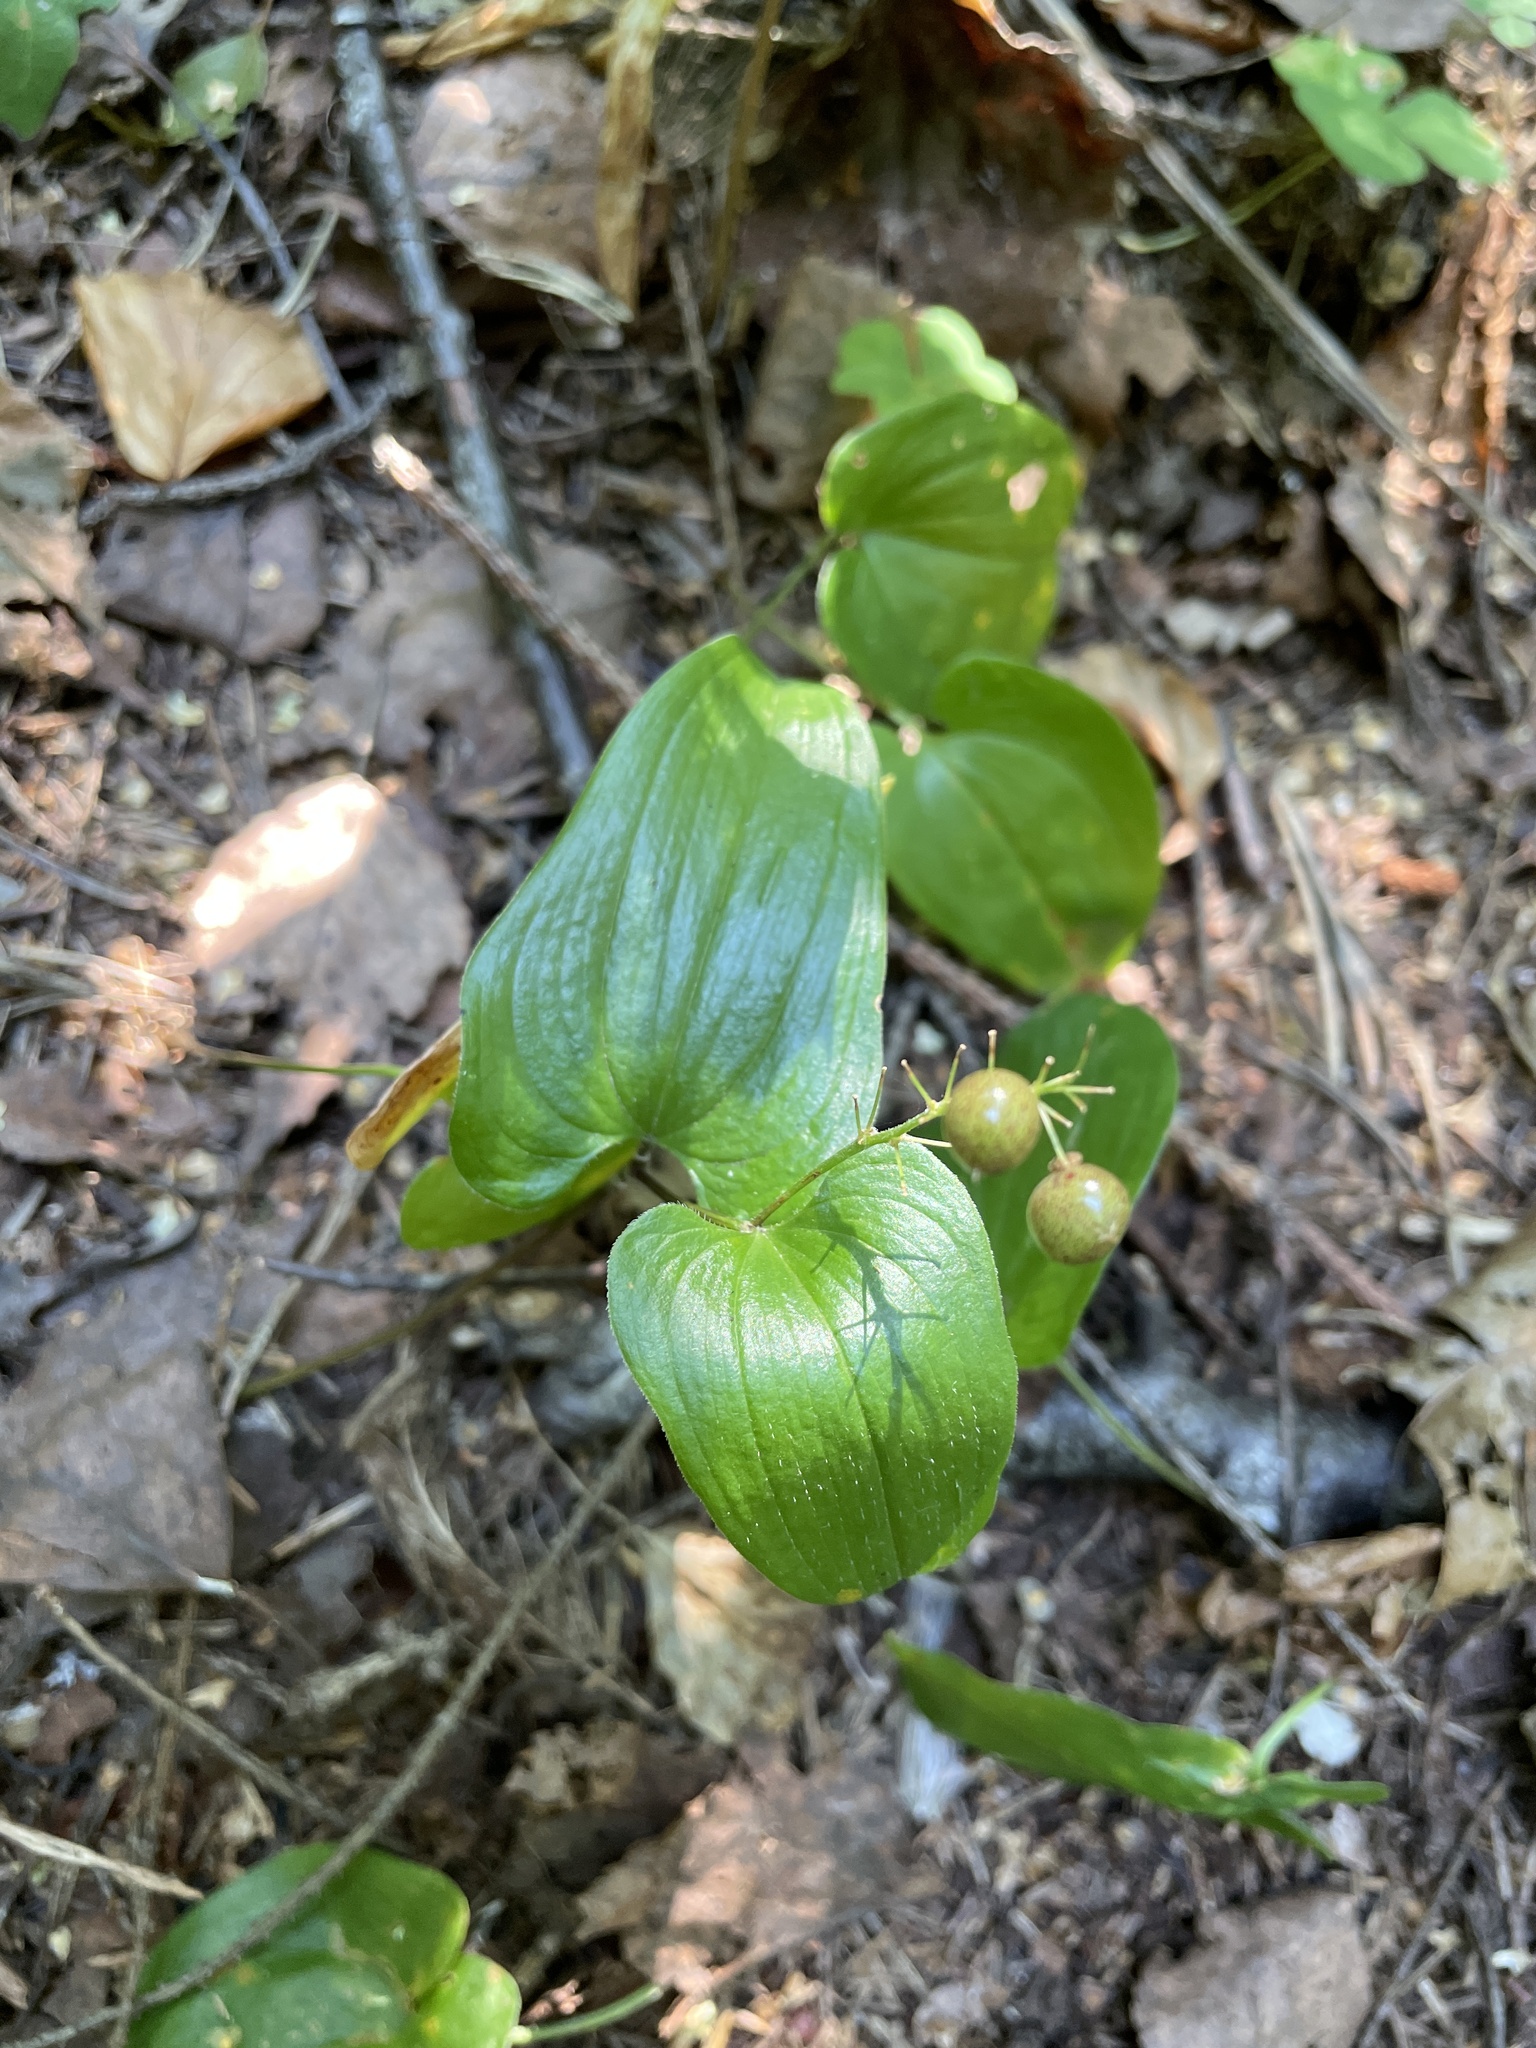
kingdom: Plantae
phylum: Tracheophyta
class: Liliopsida
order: Asparagales
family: Asparagaceae
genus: Maianthemum
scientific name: Maianthemum bifolium
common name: May lily
